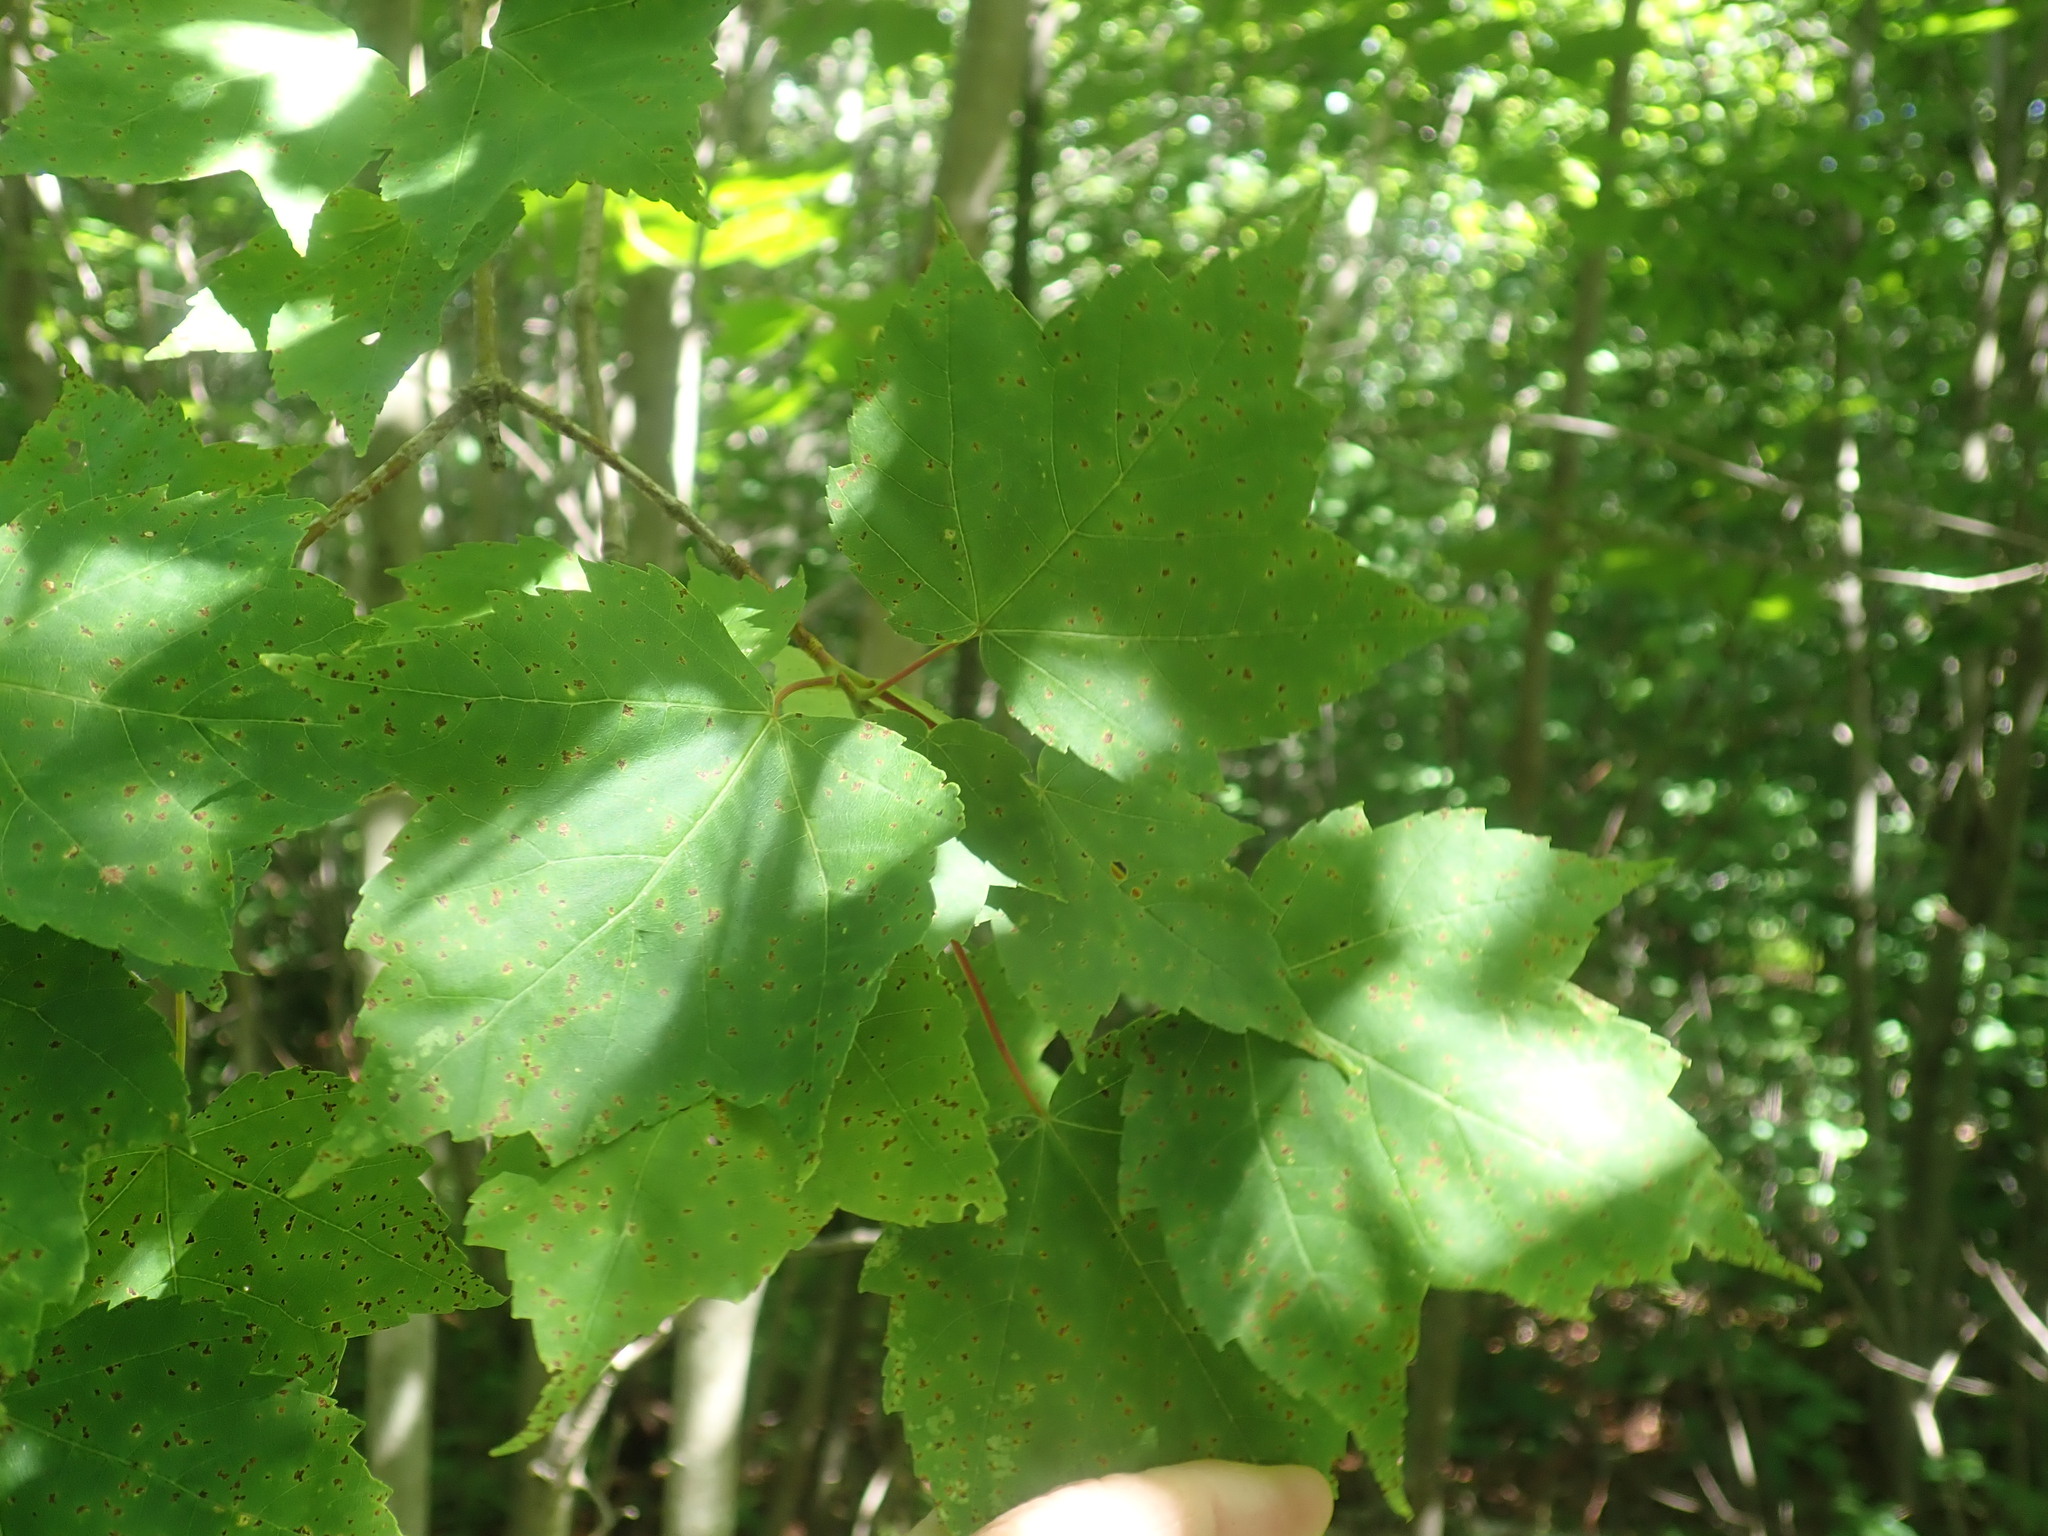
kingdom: Plantae
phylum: Tracheophyta
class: Magnoliopsida
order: Sapindales
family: Sapindaceae
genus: Acer
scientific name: Acer rubrum
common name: Red maple
